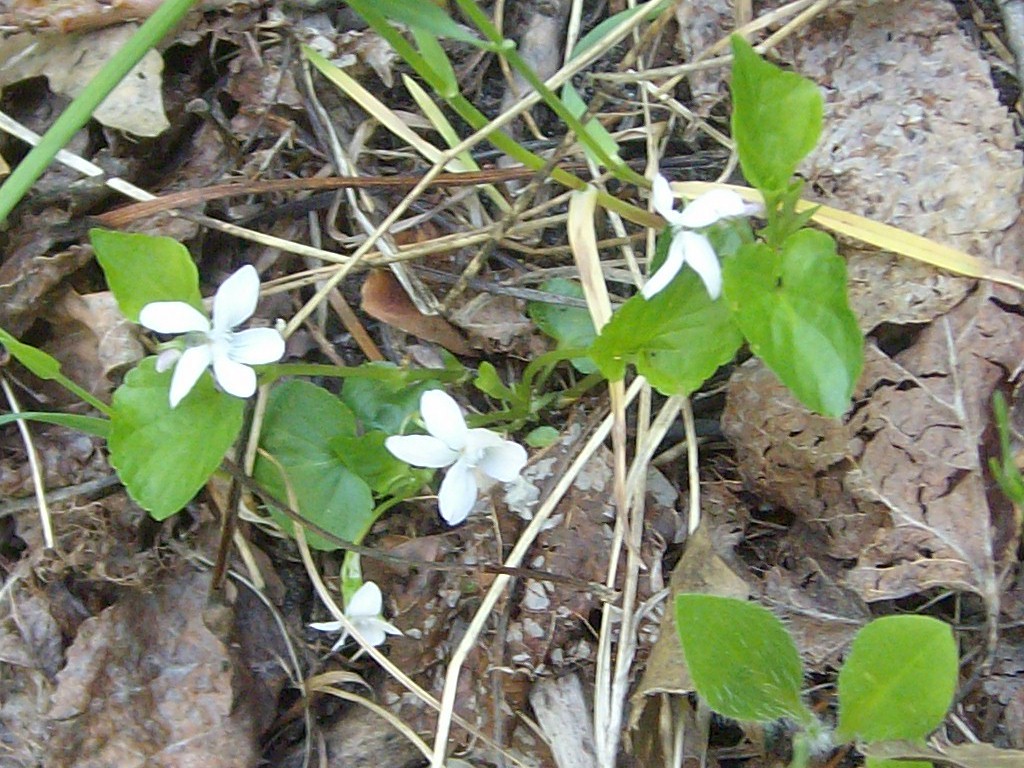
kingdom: Plantae
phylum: Tracheophyta
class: Magnoliopsida
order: Malpighiales
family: Violaceae
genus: Viola
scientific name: Viola labradorica
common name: Labrador violet
